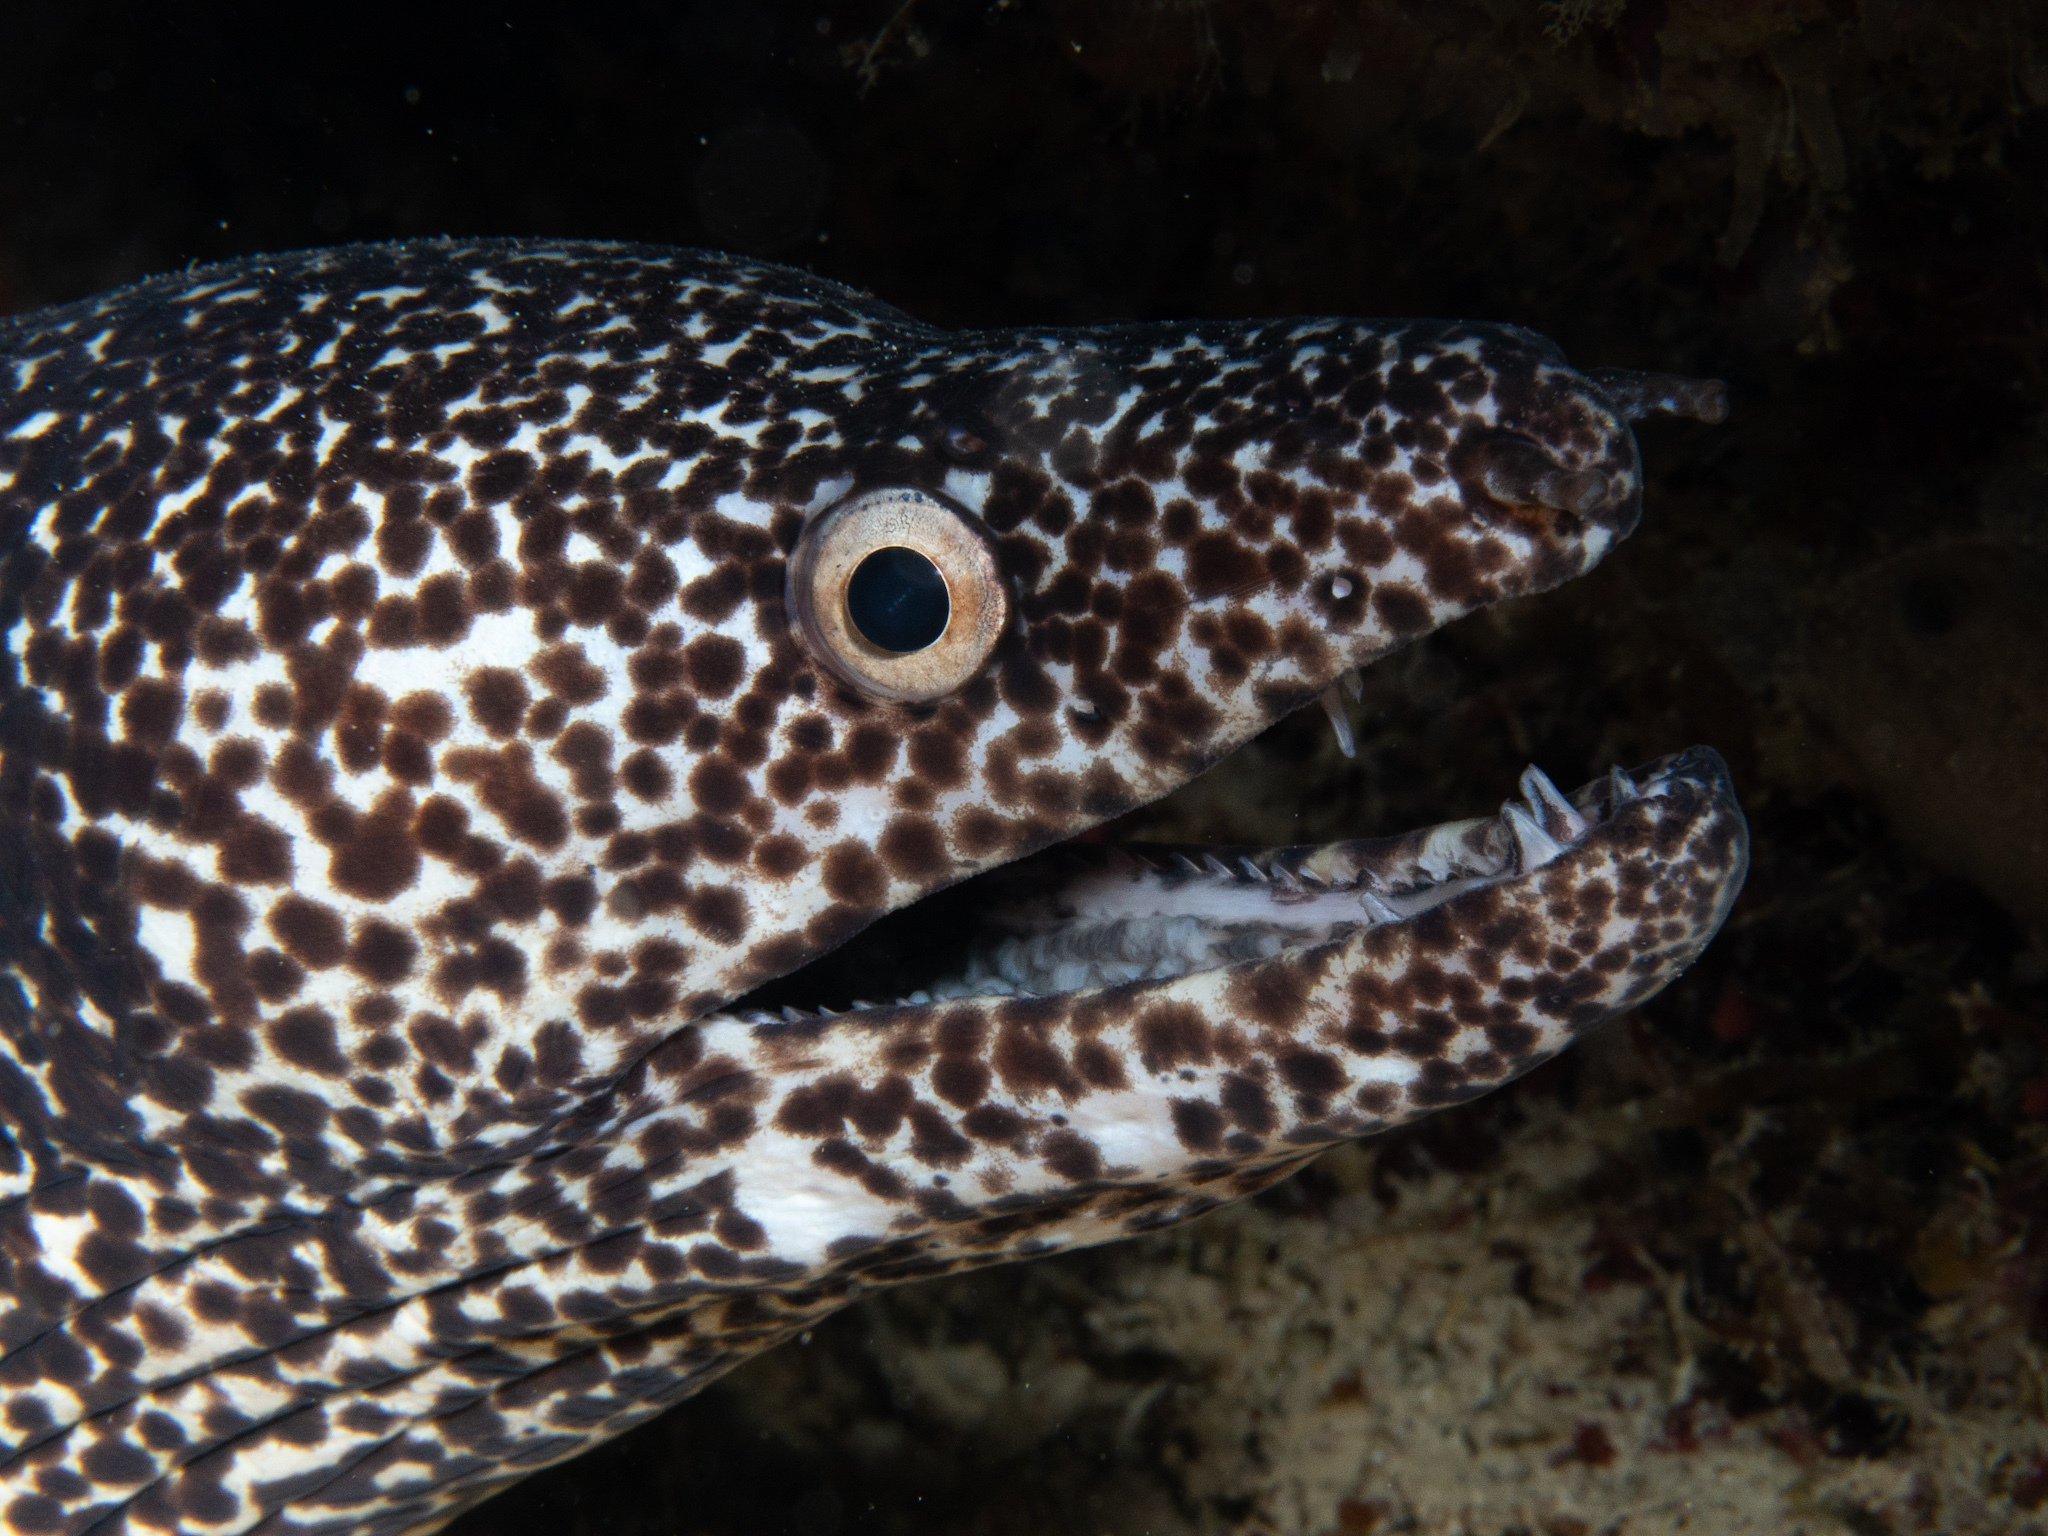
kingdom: Animalia
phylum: Chordata
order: Anguilliformes
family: Muraenidae
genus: Gymnothorax
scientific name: Gymnothorax moringa
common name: Spotted moray
